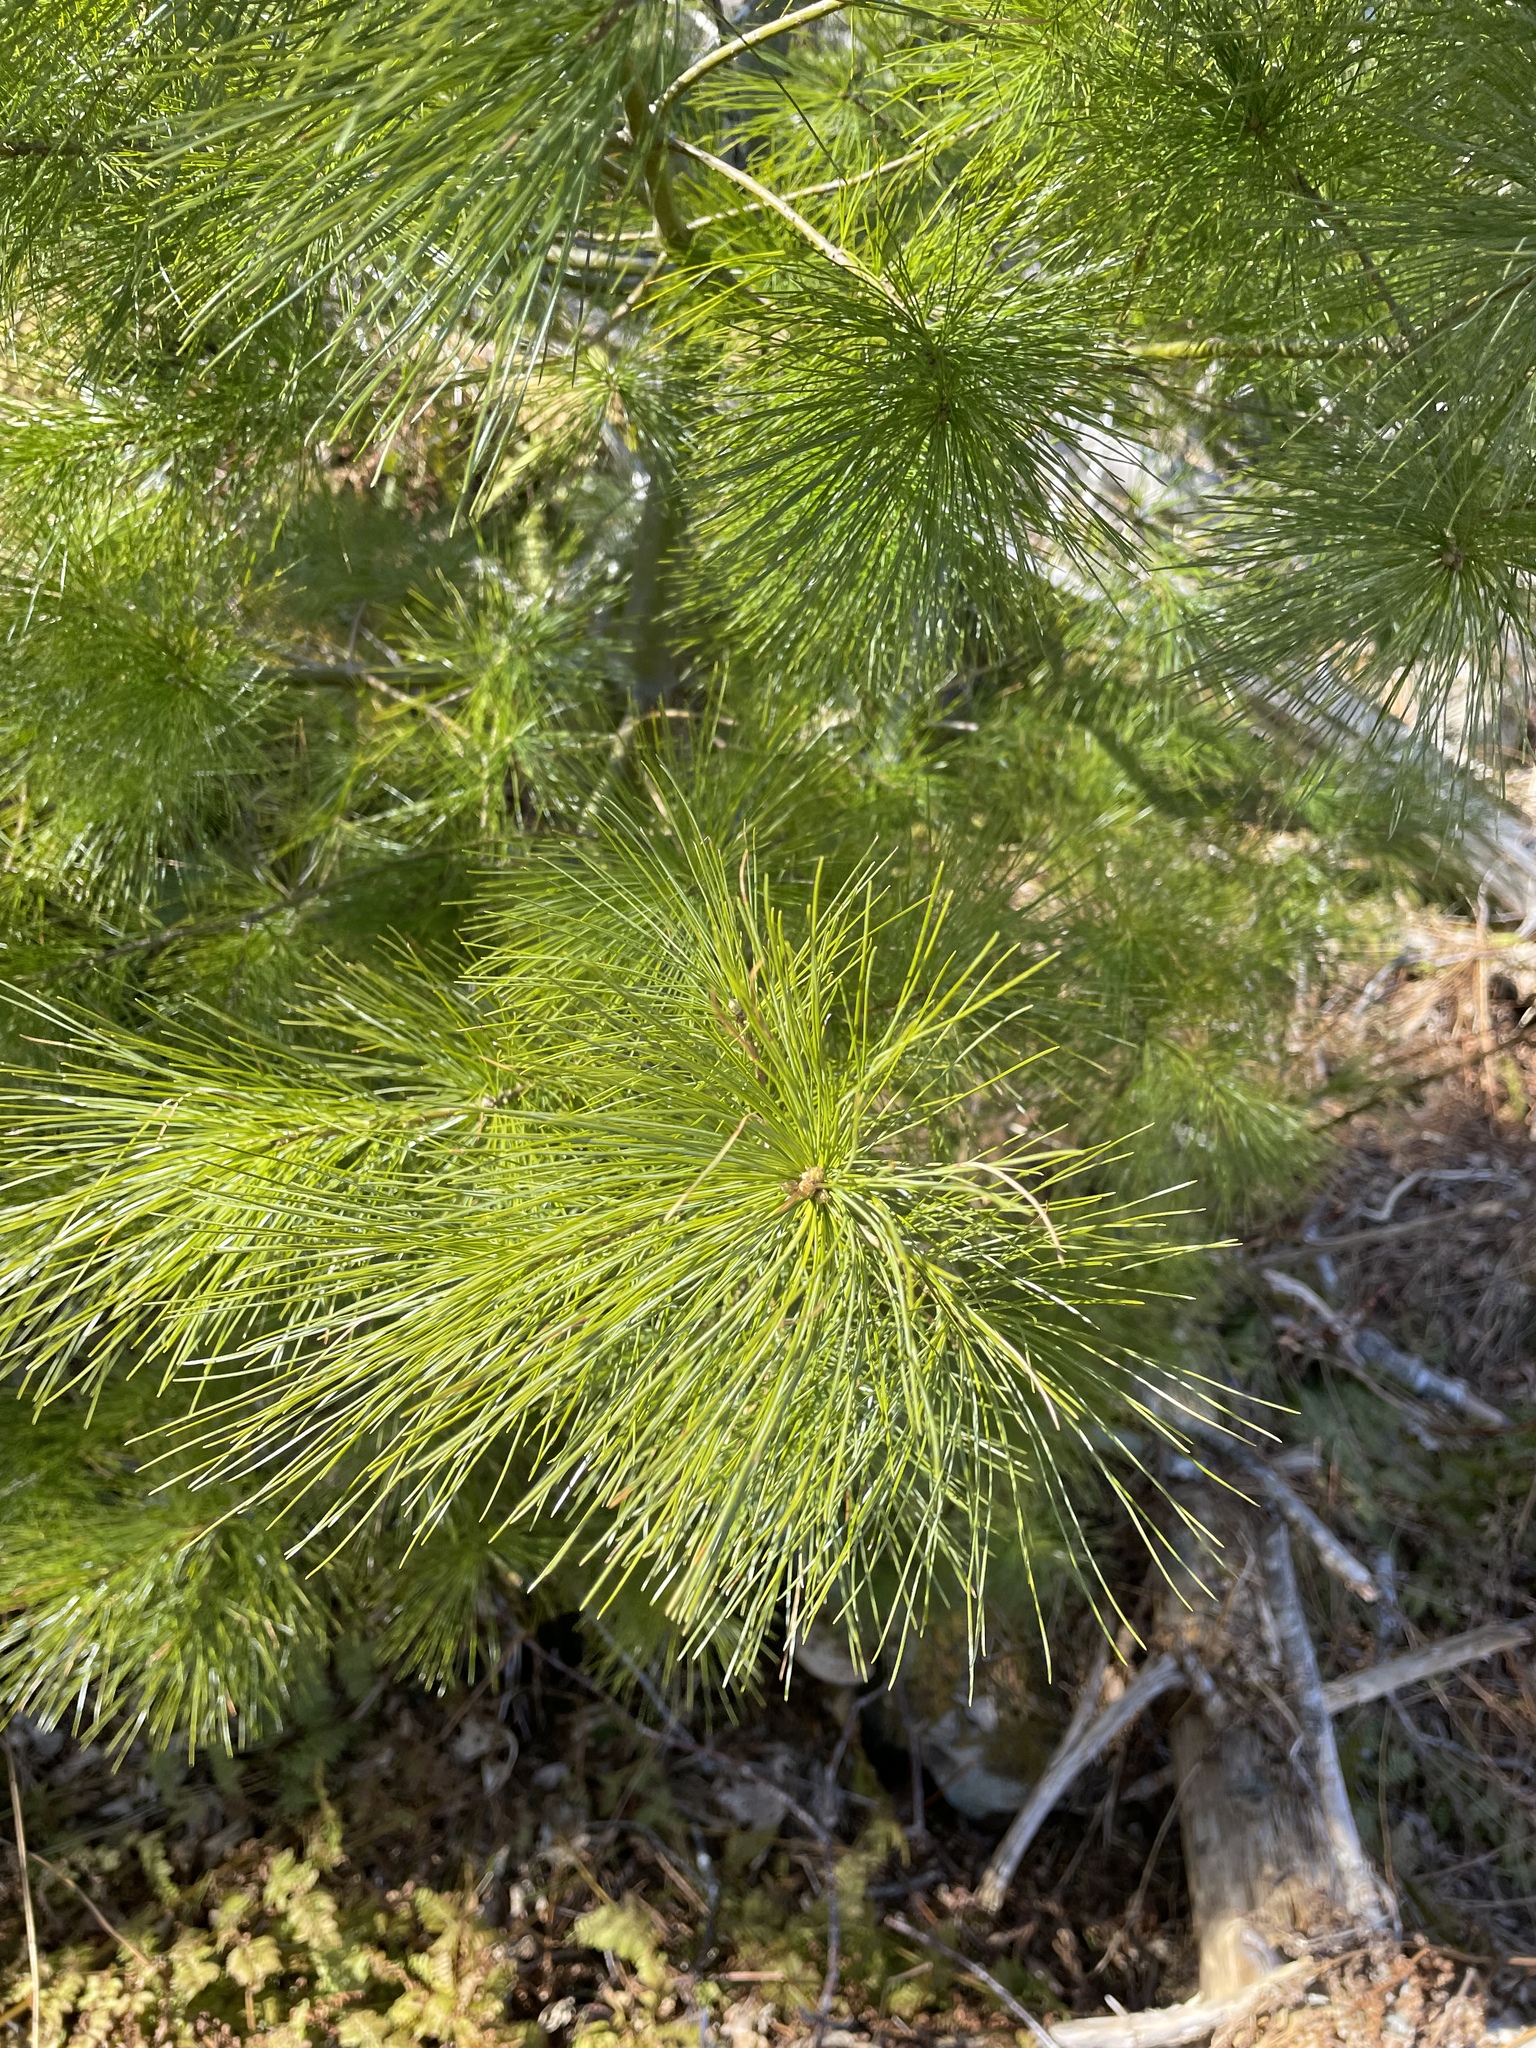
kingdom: Plantae
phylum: Tracheophyta
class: Pinopsida
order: Pinales
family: Pinaceae
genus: Pinus
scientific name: Pinus strobus
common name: Weymouth pine
